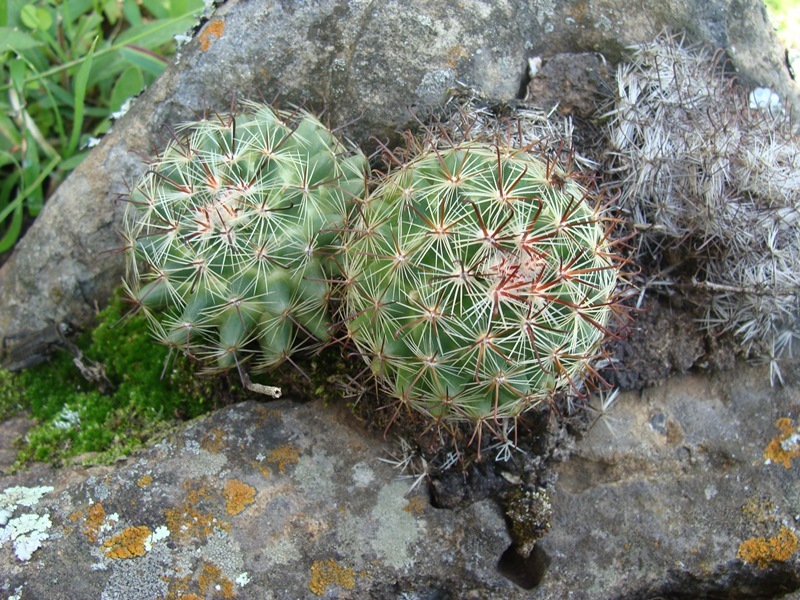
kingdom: Plantae
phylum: Tracheophyta
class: Magnoliopsida
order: Caryophyllales
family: Cactaceae
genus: Mammillaria
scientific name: Mammillaria jaliscana
